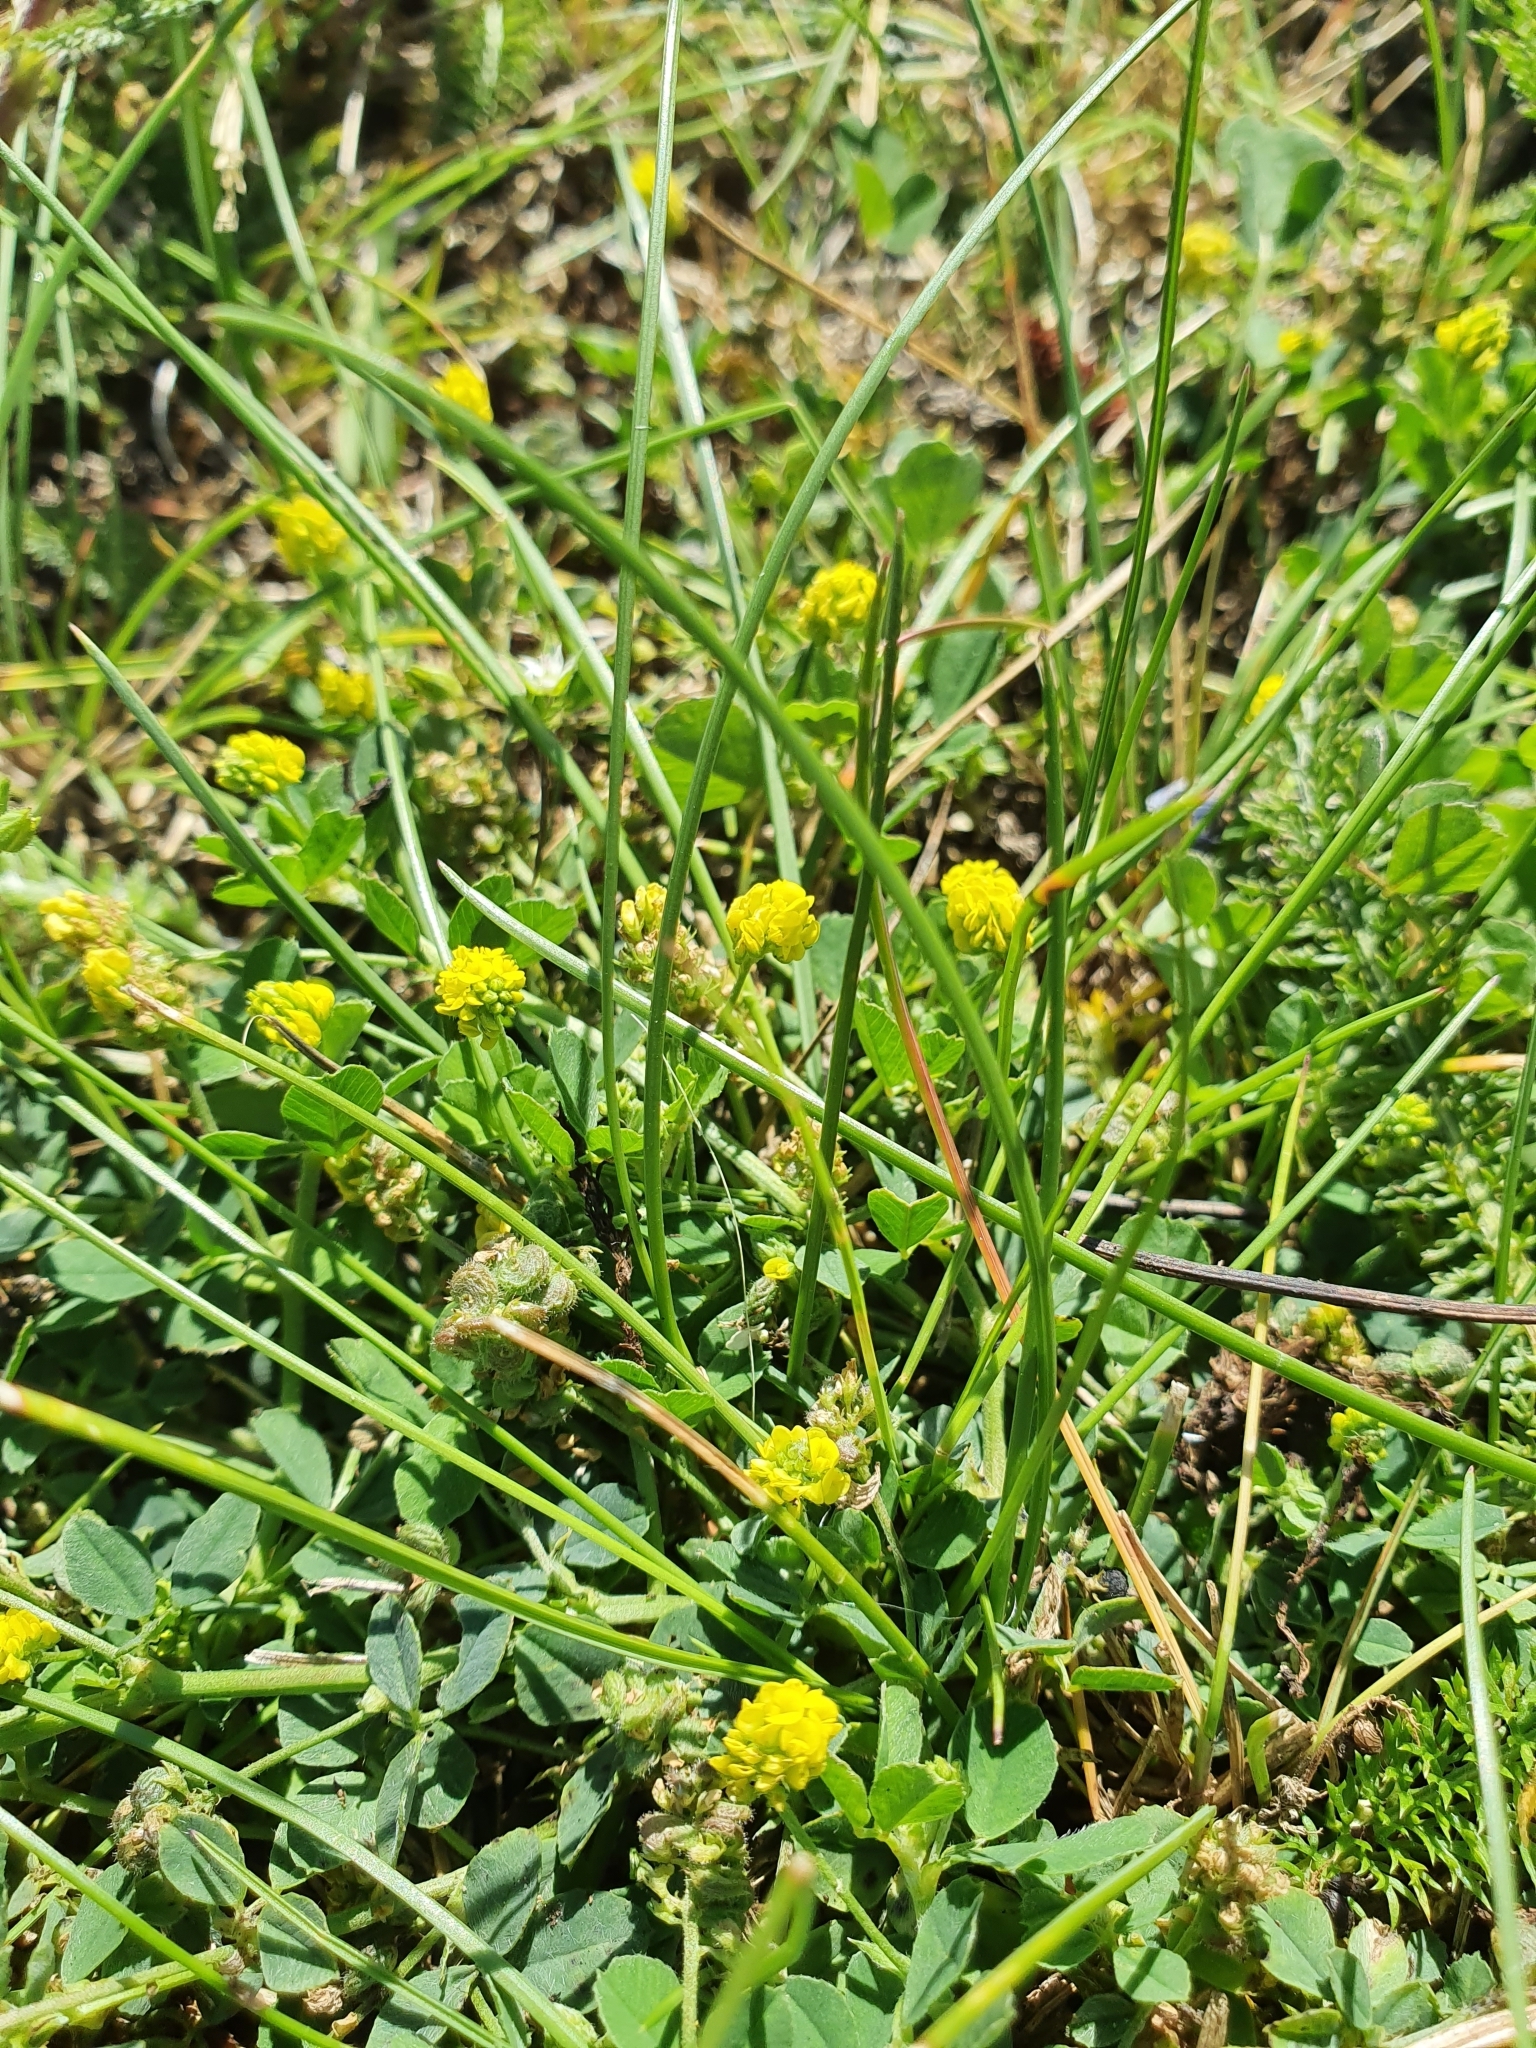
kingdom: Plantae
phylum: Tracheophyta
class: Magnoliopsida
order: Fabales
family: Fabaceae
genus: Medicago
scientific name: Medicago lupulina
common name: Black medick
